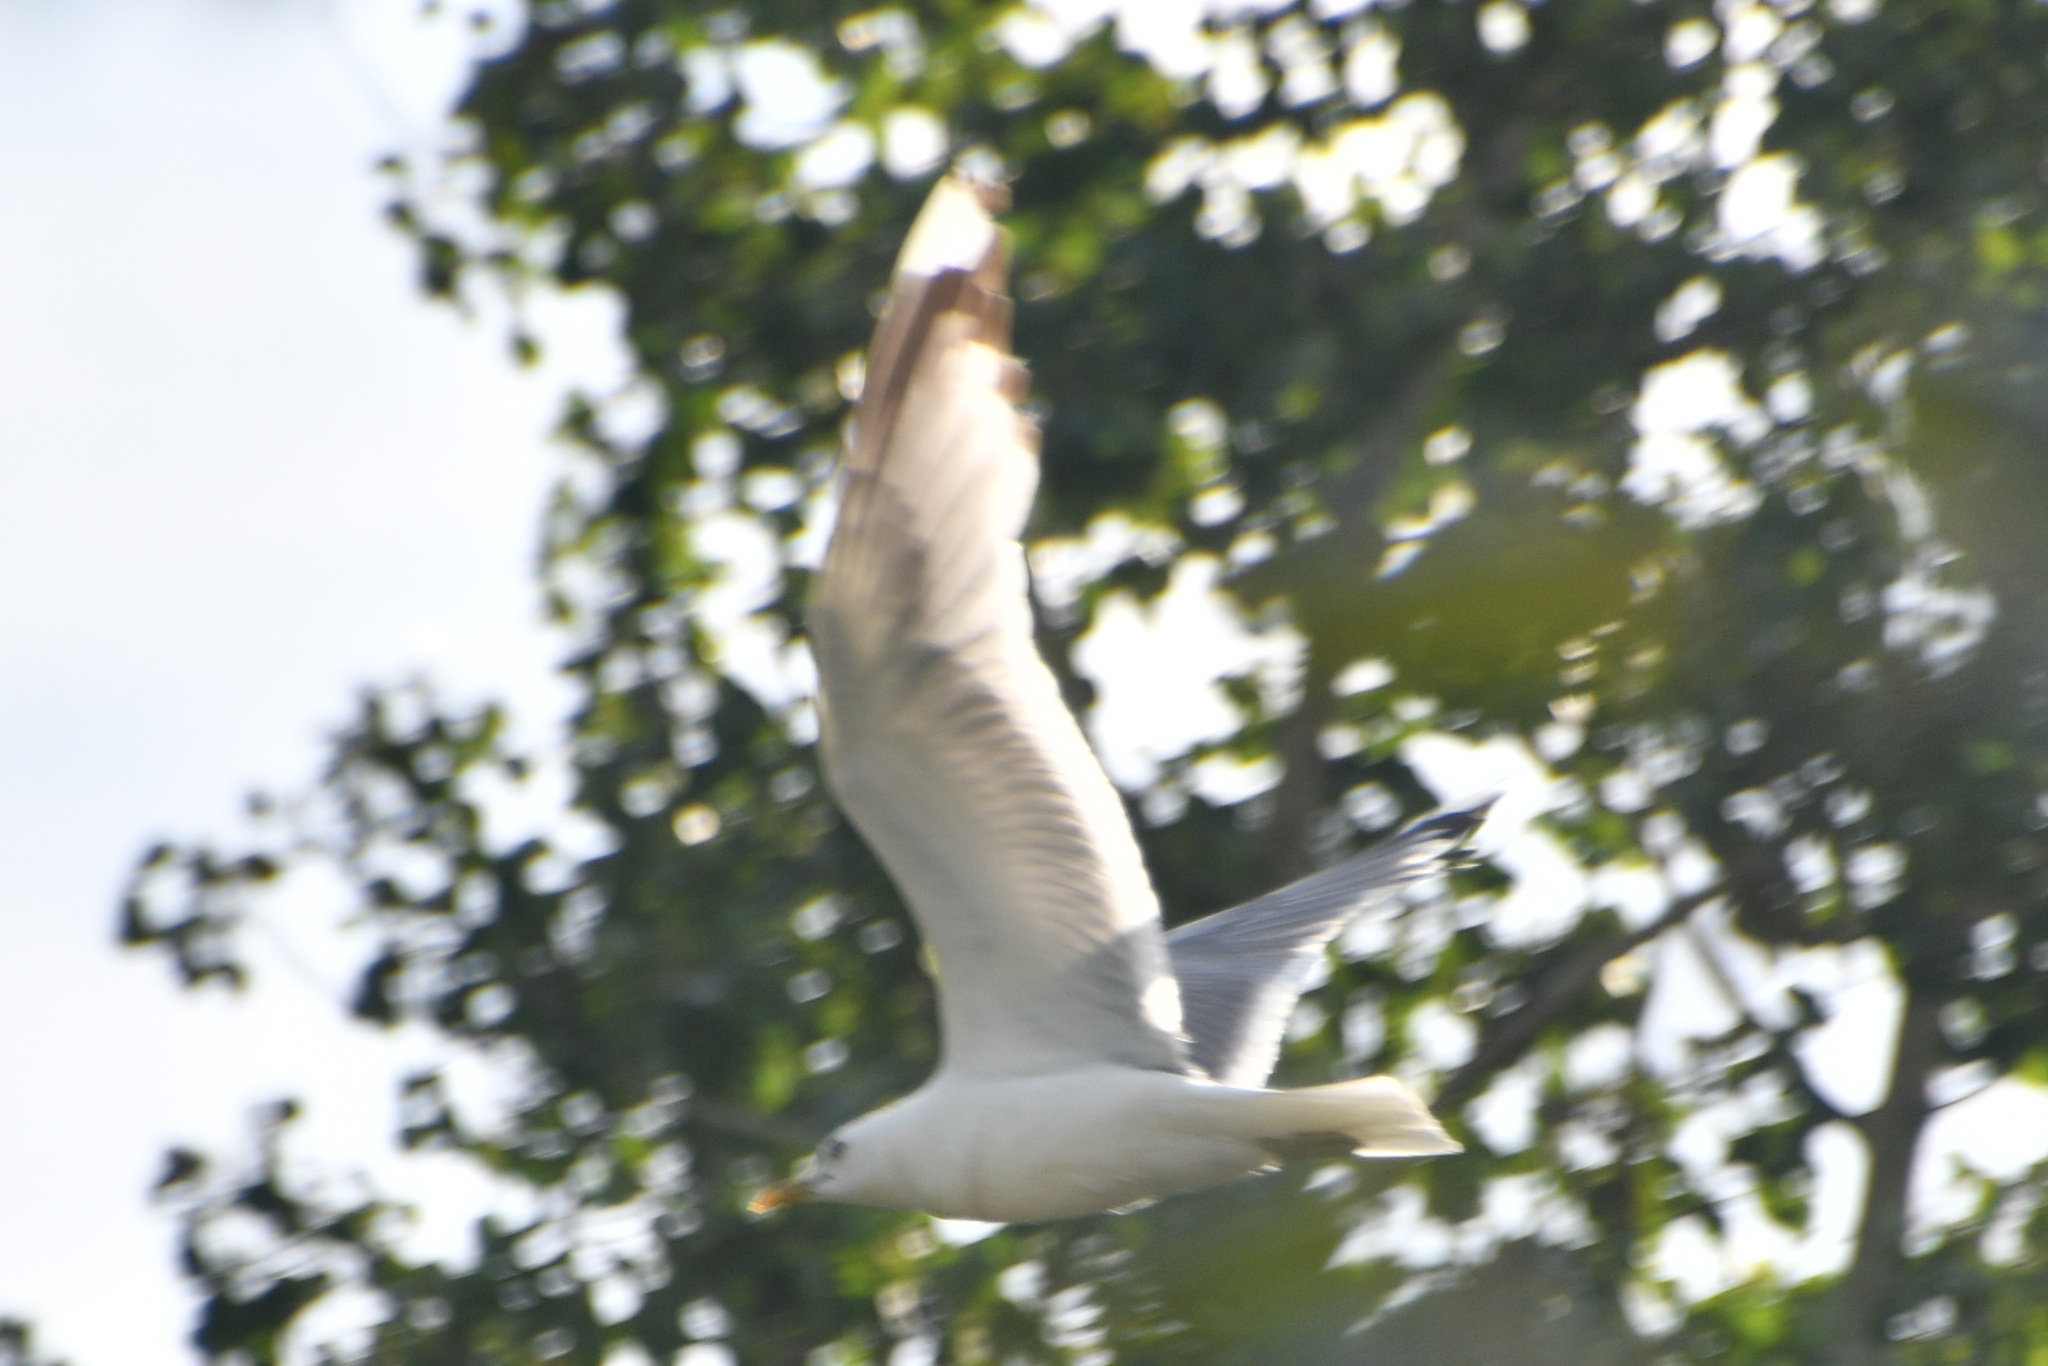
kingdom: Animalia
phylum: Chordata
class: Aves
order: Charadriiformes
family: Laridae
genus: Larus
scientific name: Larus brachyrhynchus
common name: Short-billed gull
